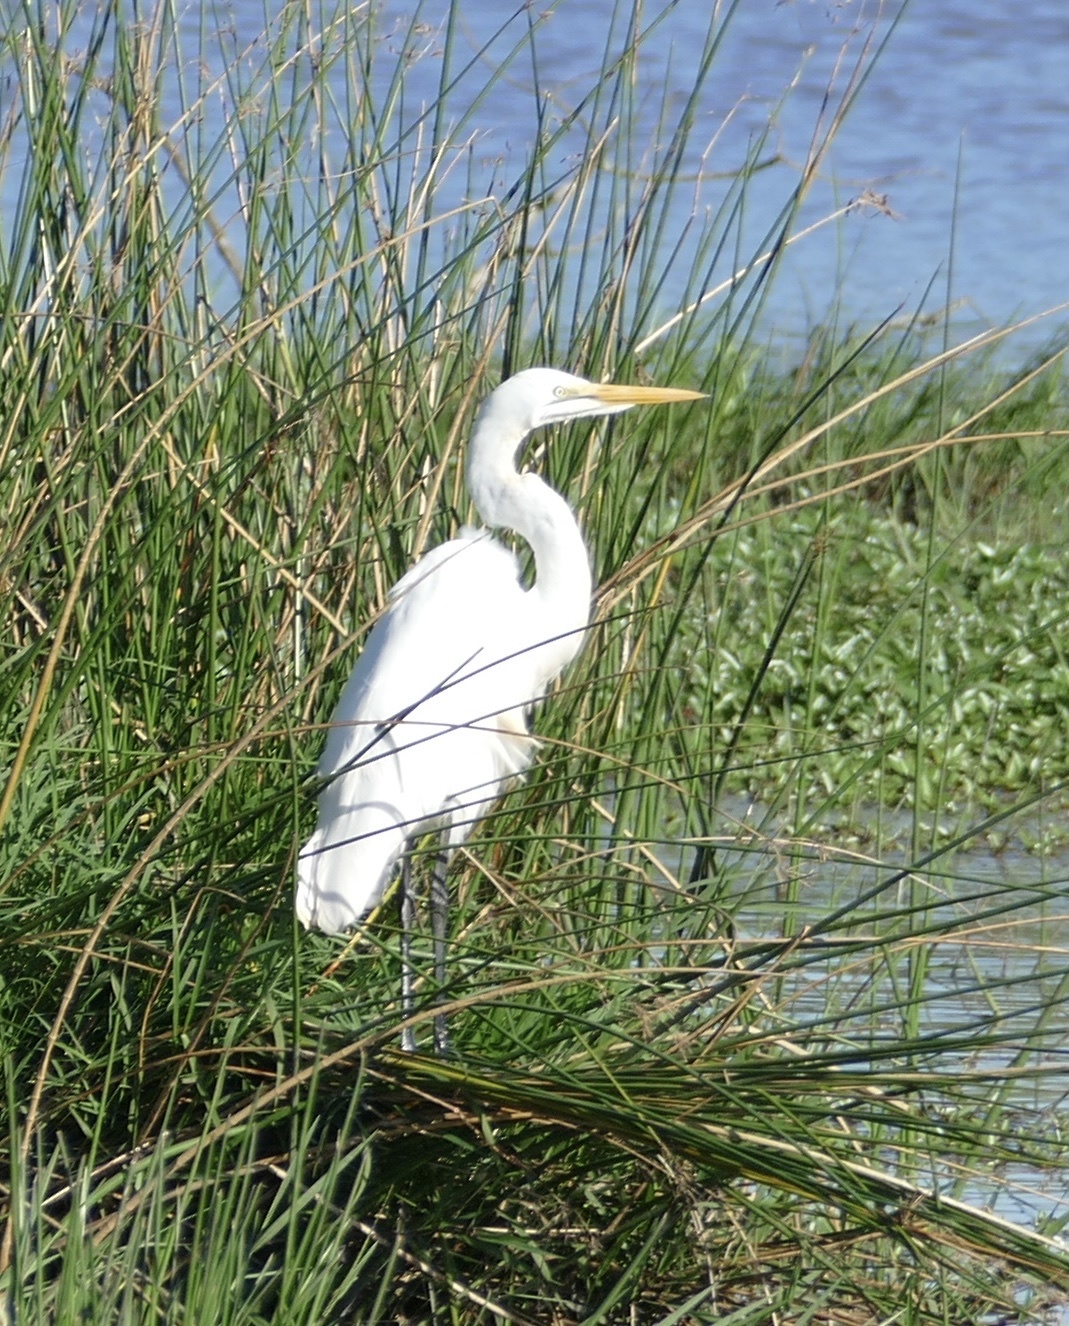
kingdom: Animalia
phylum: Chordata
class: Aves
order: Pelecaniformes
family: Ardeidae
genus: Ardea
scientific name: Ardea alba
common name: Great egret
